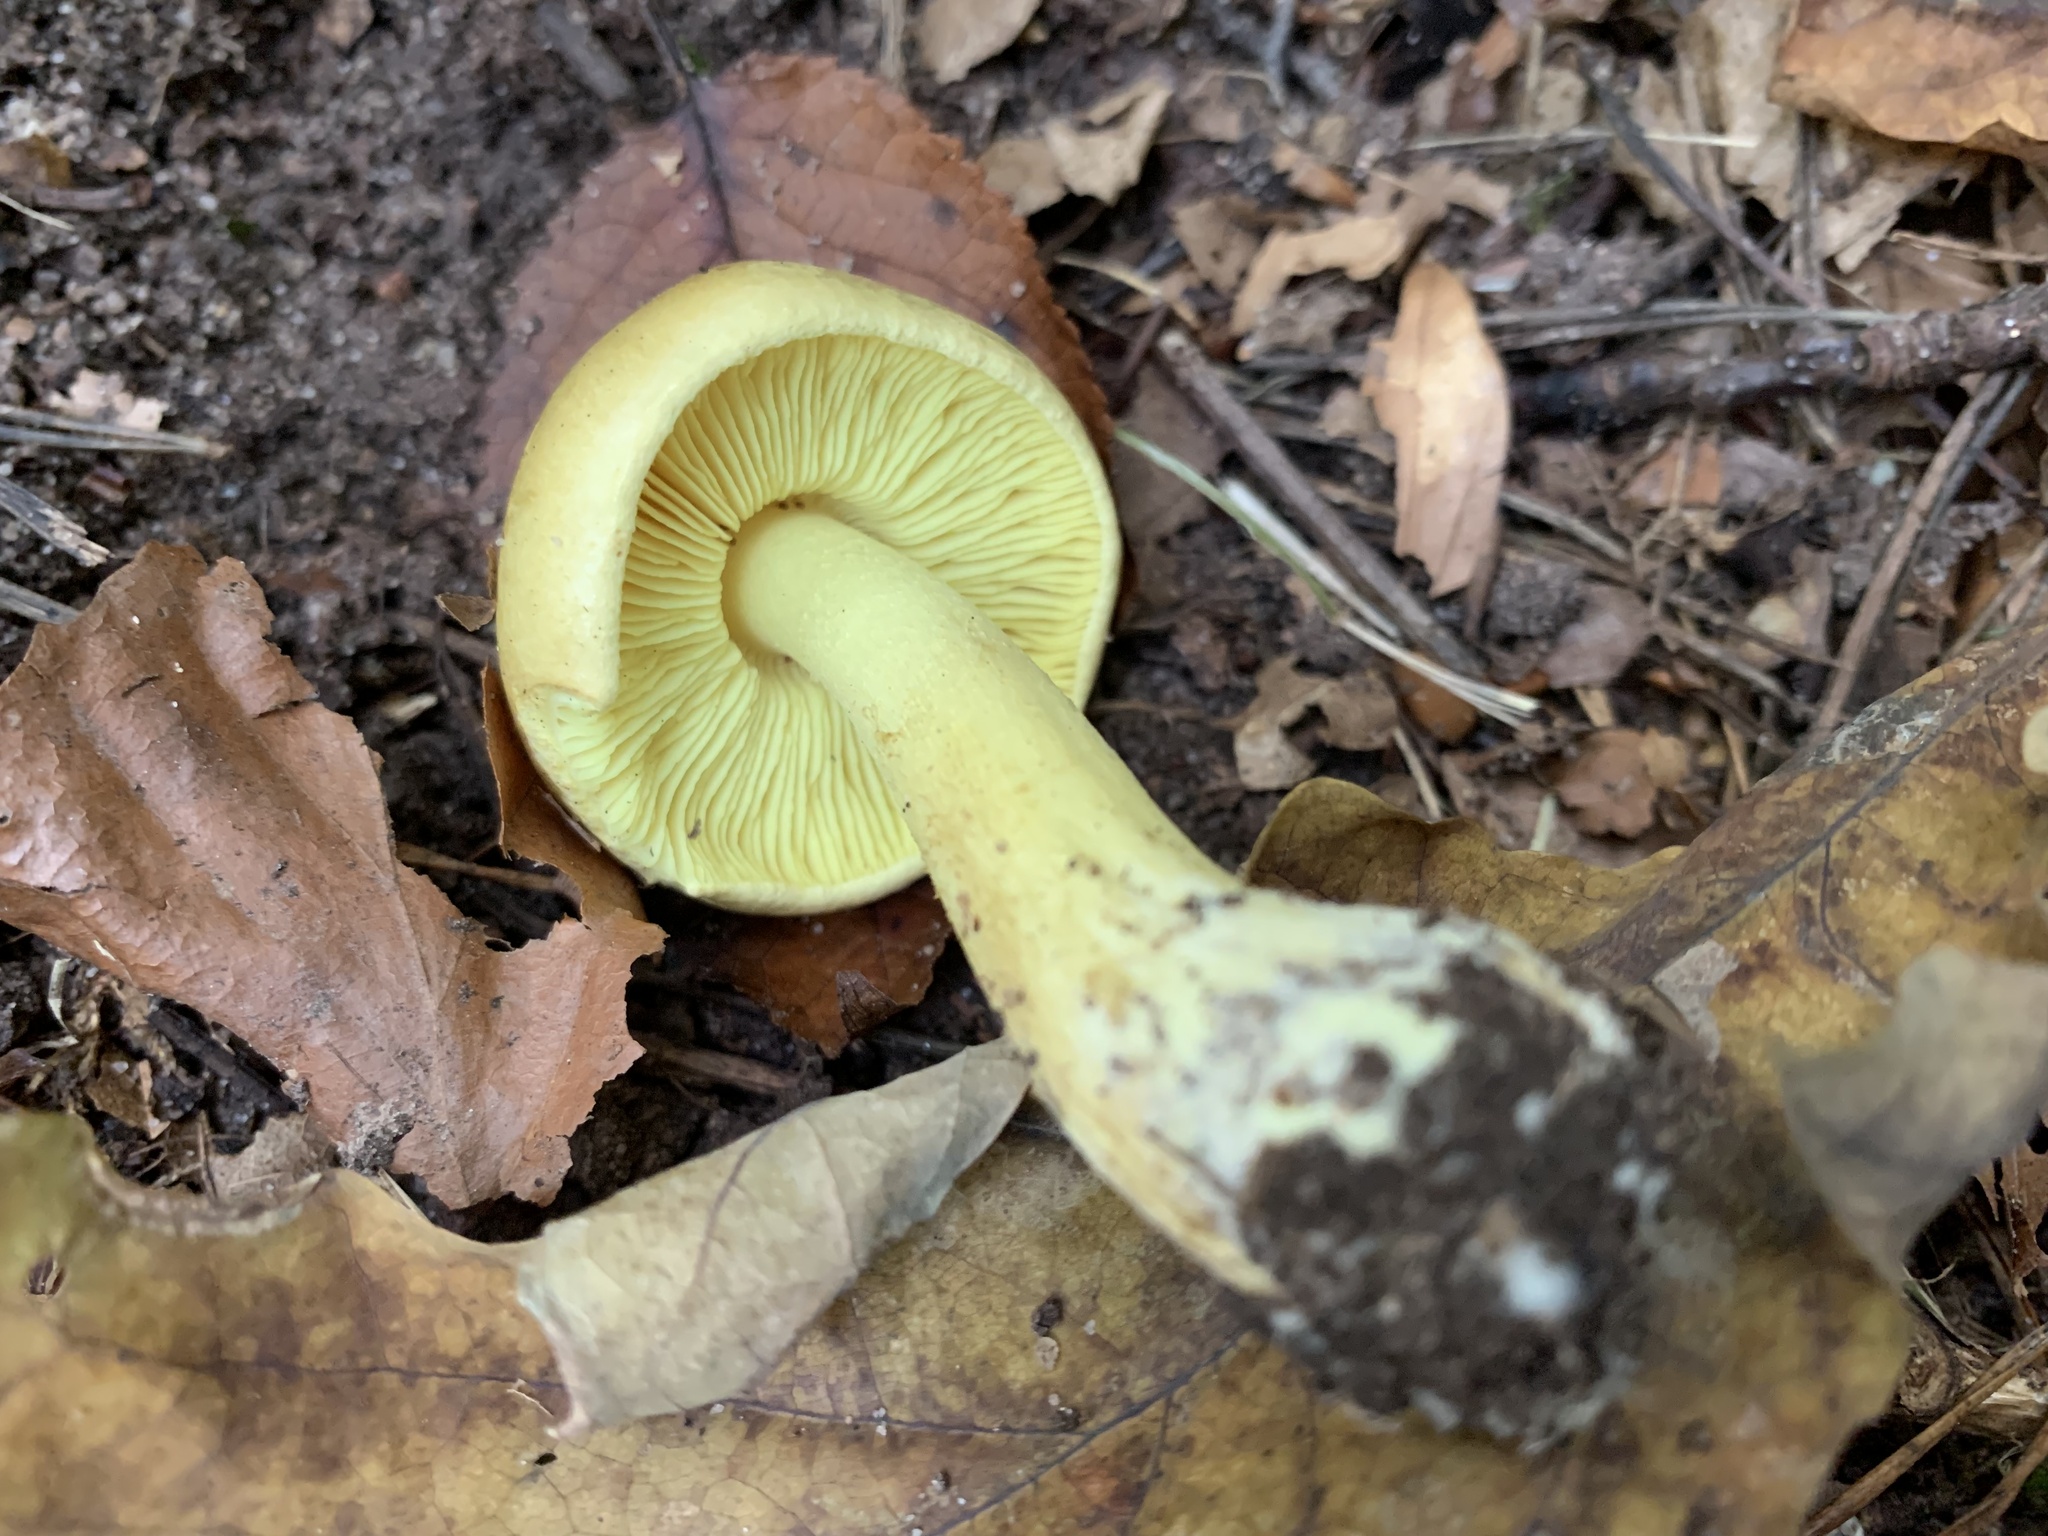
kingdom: Fungi
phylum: Basidiomycota
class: Agaricomycetes
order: Agaricales
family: Tricholomataceae
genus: Tricholoma
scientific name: Tricholoma equestre
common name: Yellow knight
